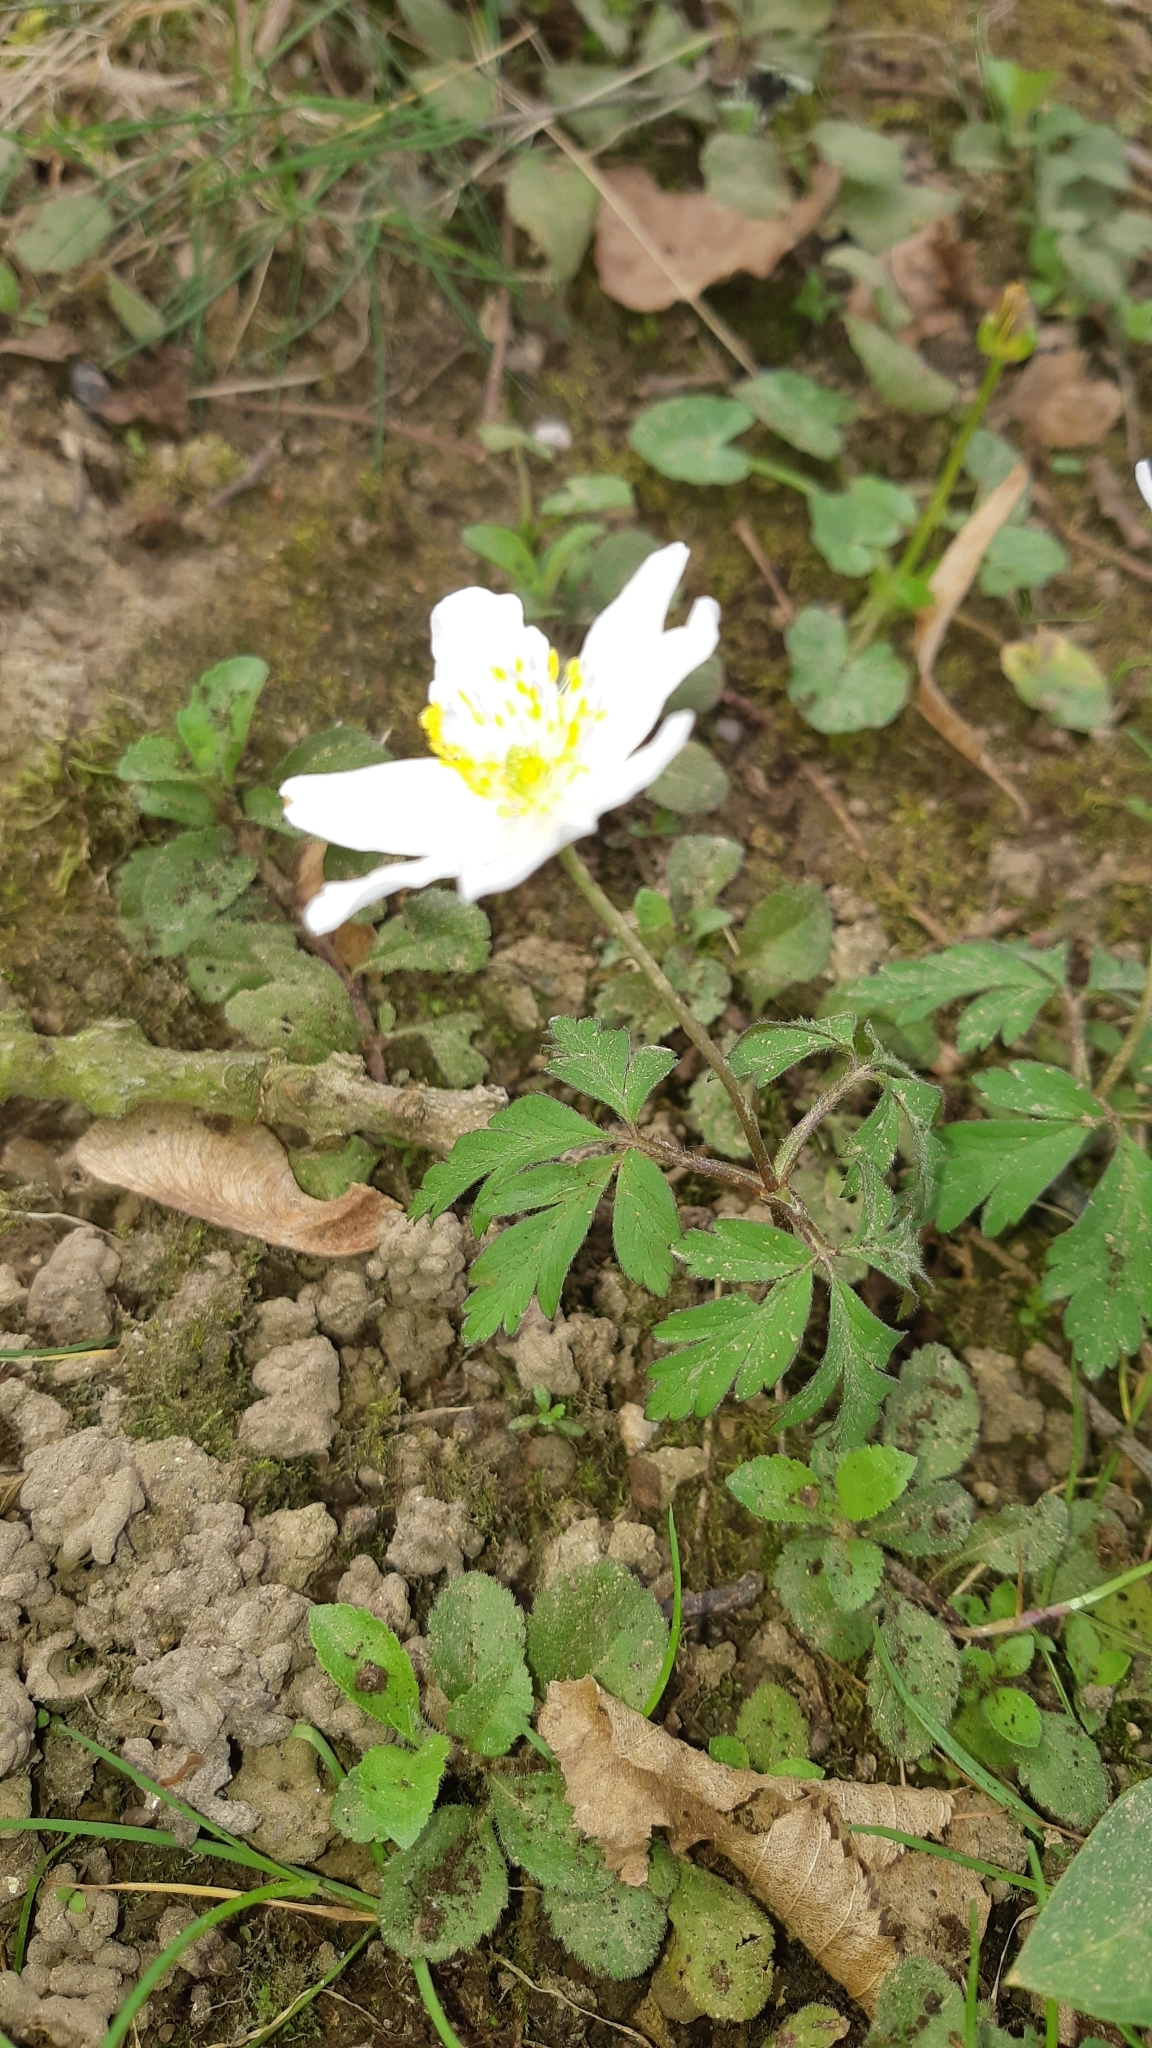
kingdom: Plantae
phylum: Tracheophyta
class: Magnoliopsida
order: Ranunculales
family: Ranunculaceae
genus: Anemone
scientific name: Anemone nemorosa
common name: Wood anemone
